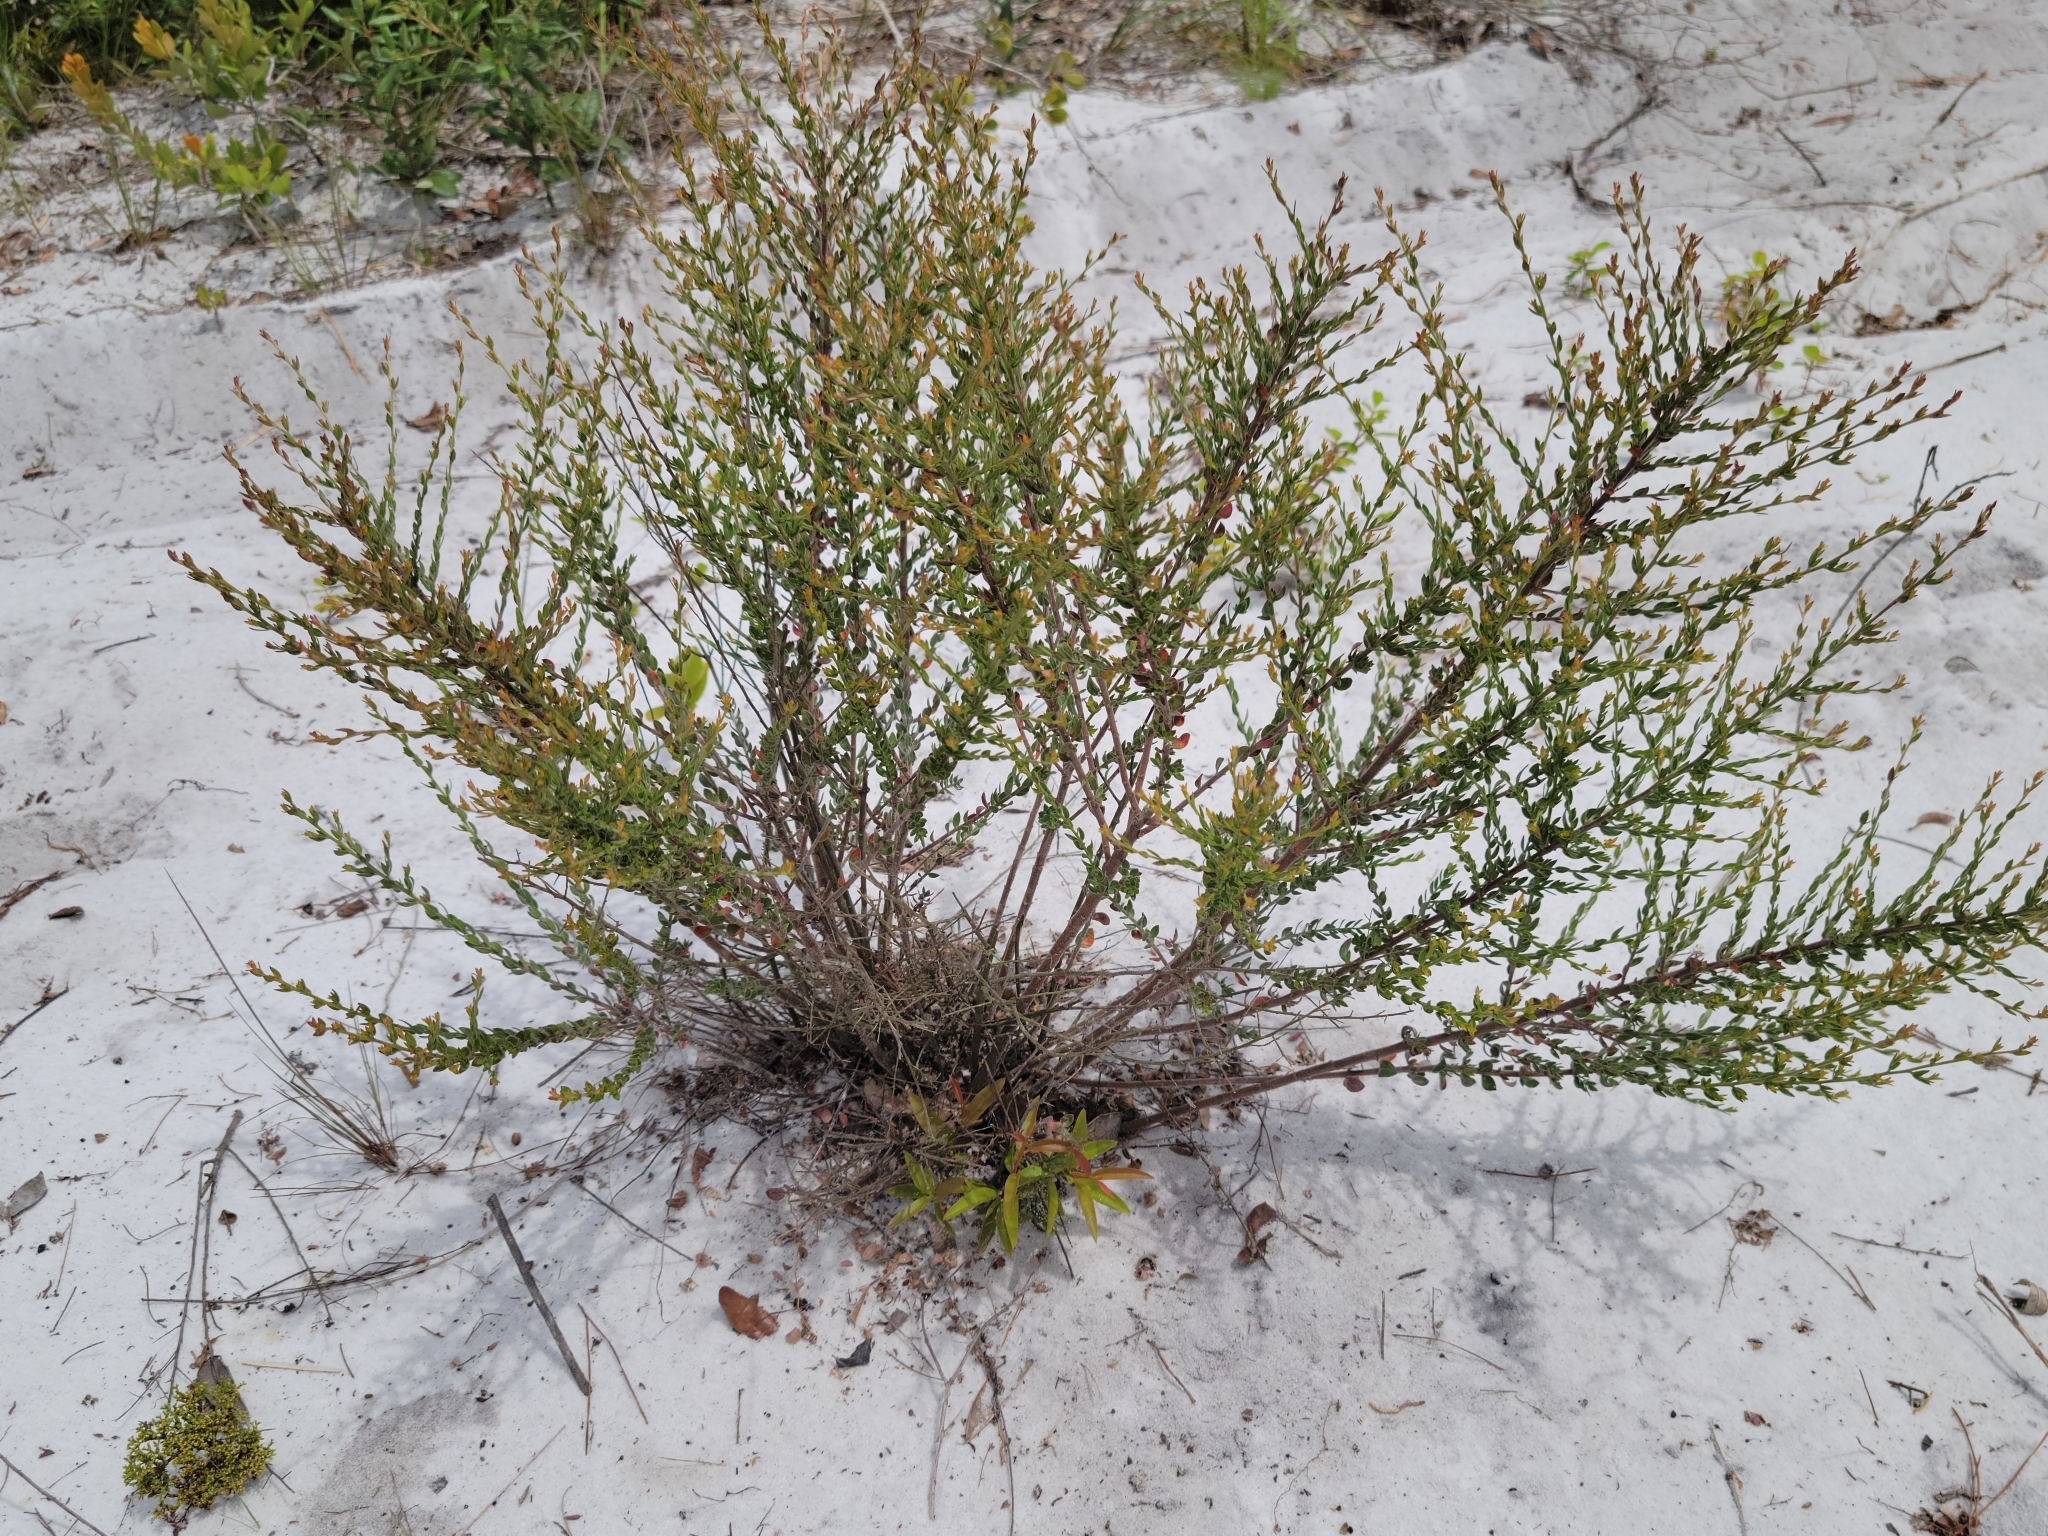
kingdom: Plantae
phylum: Tracheophyta
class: Magnoliopsida
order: Malvales
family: Cistaceae
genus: Lechea
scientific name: Lechea cernua
